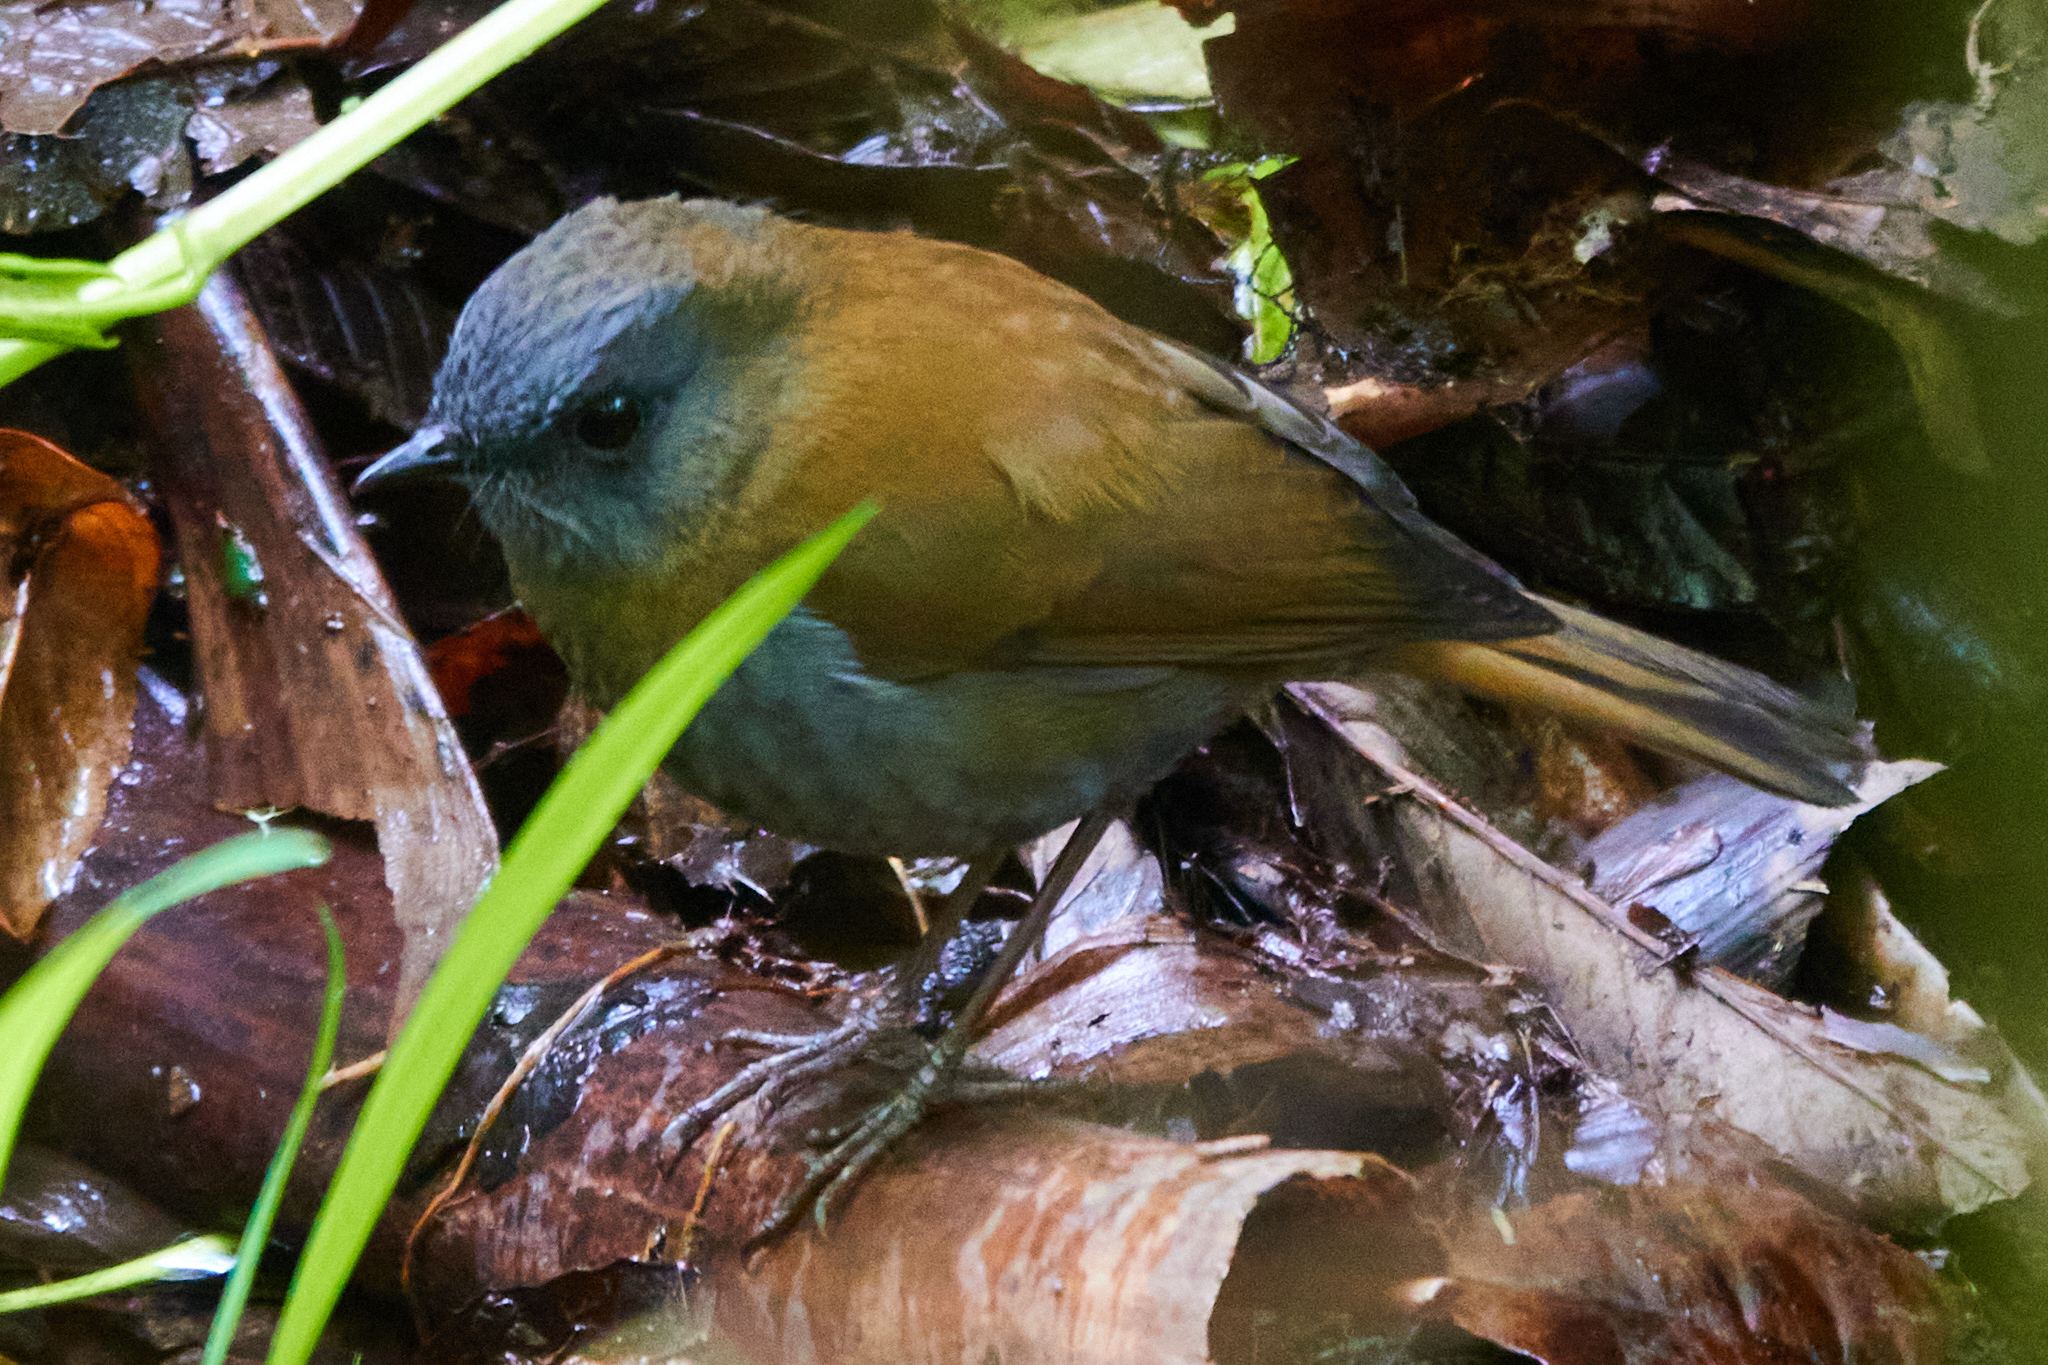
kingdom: Animalia
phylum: Chordata
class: Aves
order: Passeriformes
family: Turdidae
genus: Catharus
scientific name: Catharus gracilirostris
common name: Black-billed nightingale-thrush
